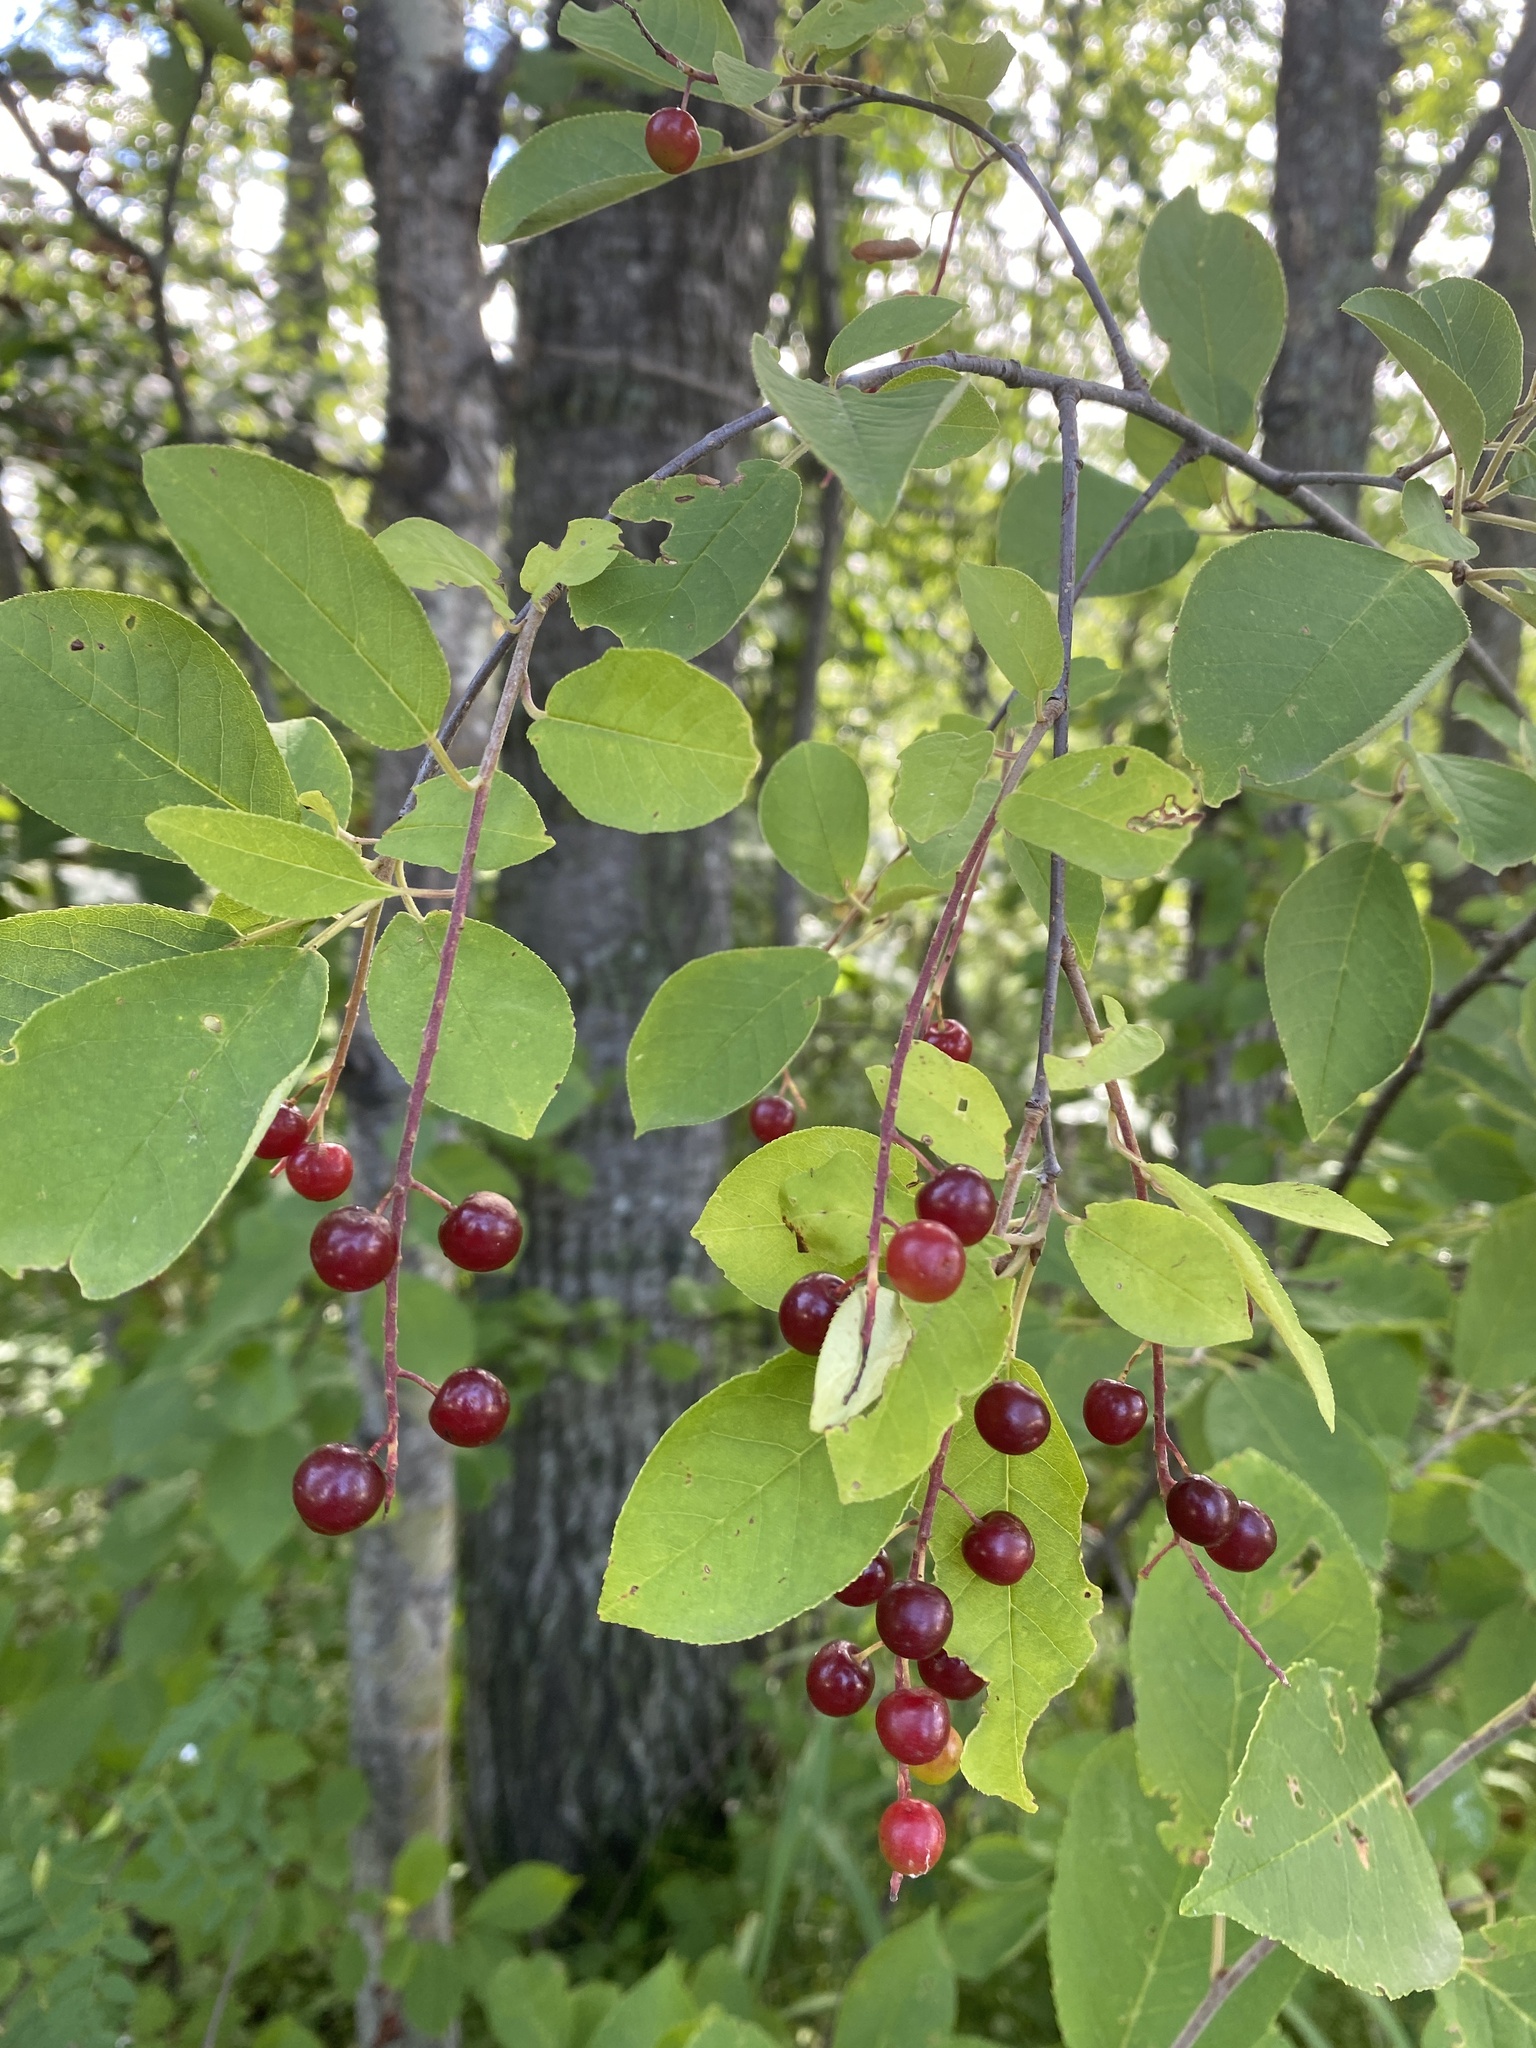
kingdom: Plantae
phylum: Tracheophyta
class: Magnoliopsida
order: Rosales
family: Rosaceae
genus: Prunus
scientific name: Prunus virginiana
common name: Chokecherry
